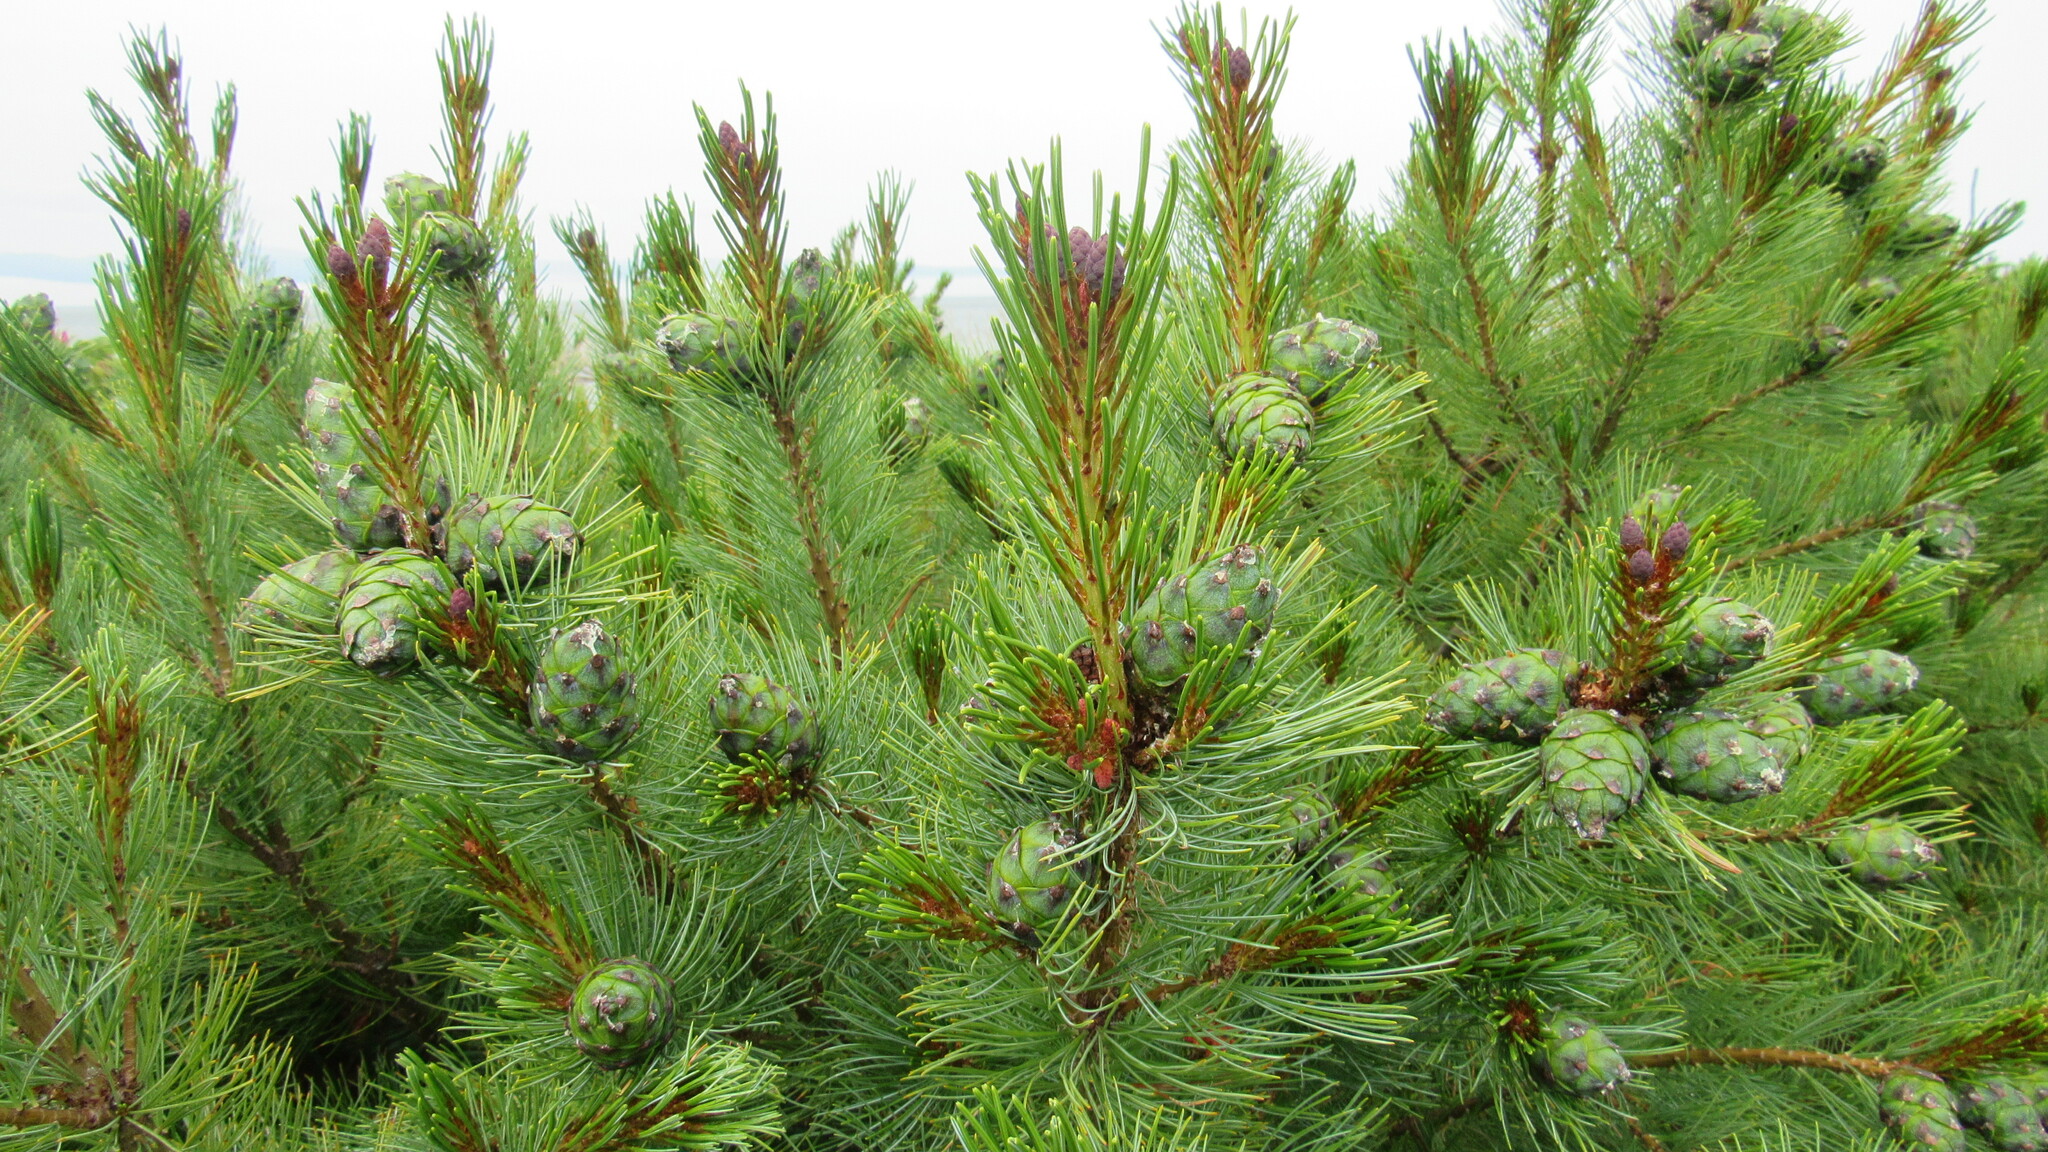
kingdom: Plantae
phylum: Tracheophyta
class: Pinopsida
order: Pinales
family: Pinaceae
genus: Pinus
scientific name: Pinus pumila
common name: Dwarf siberian pine
